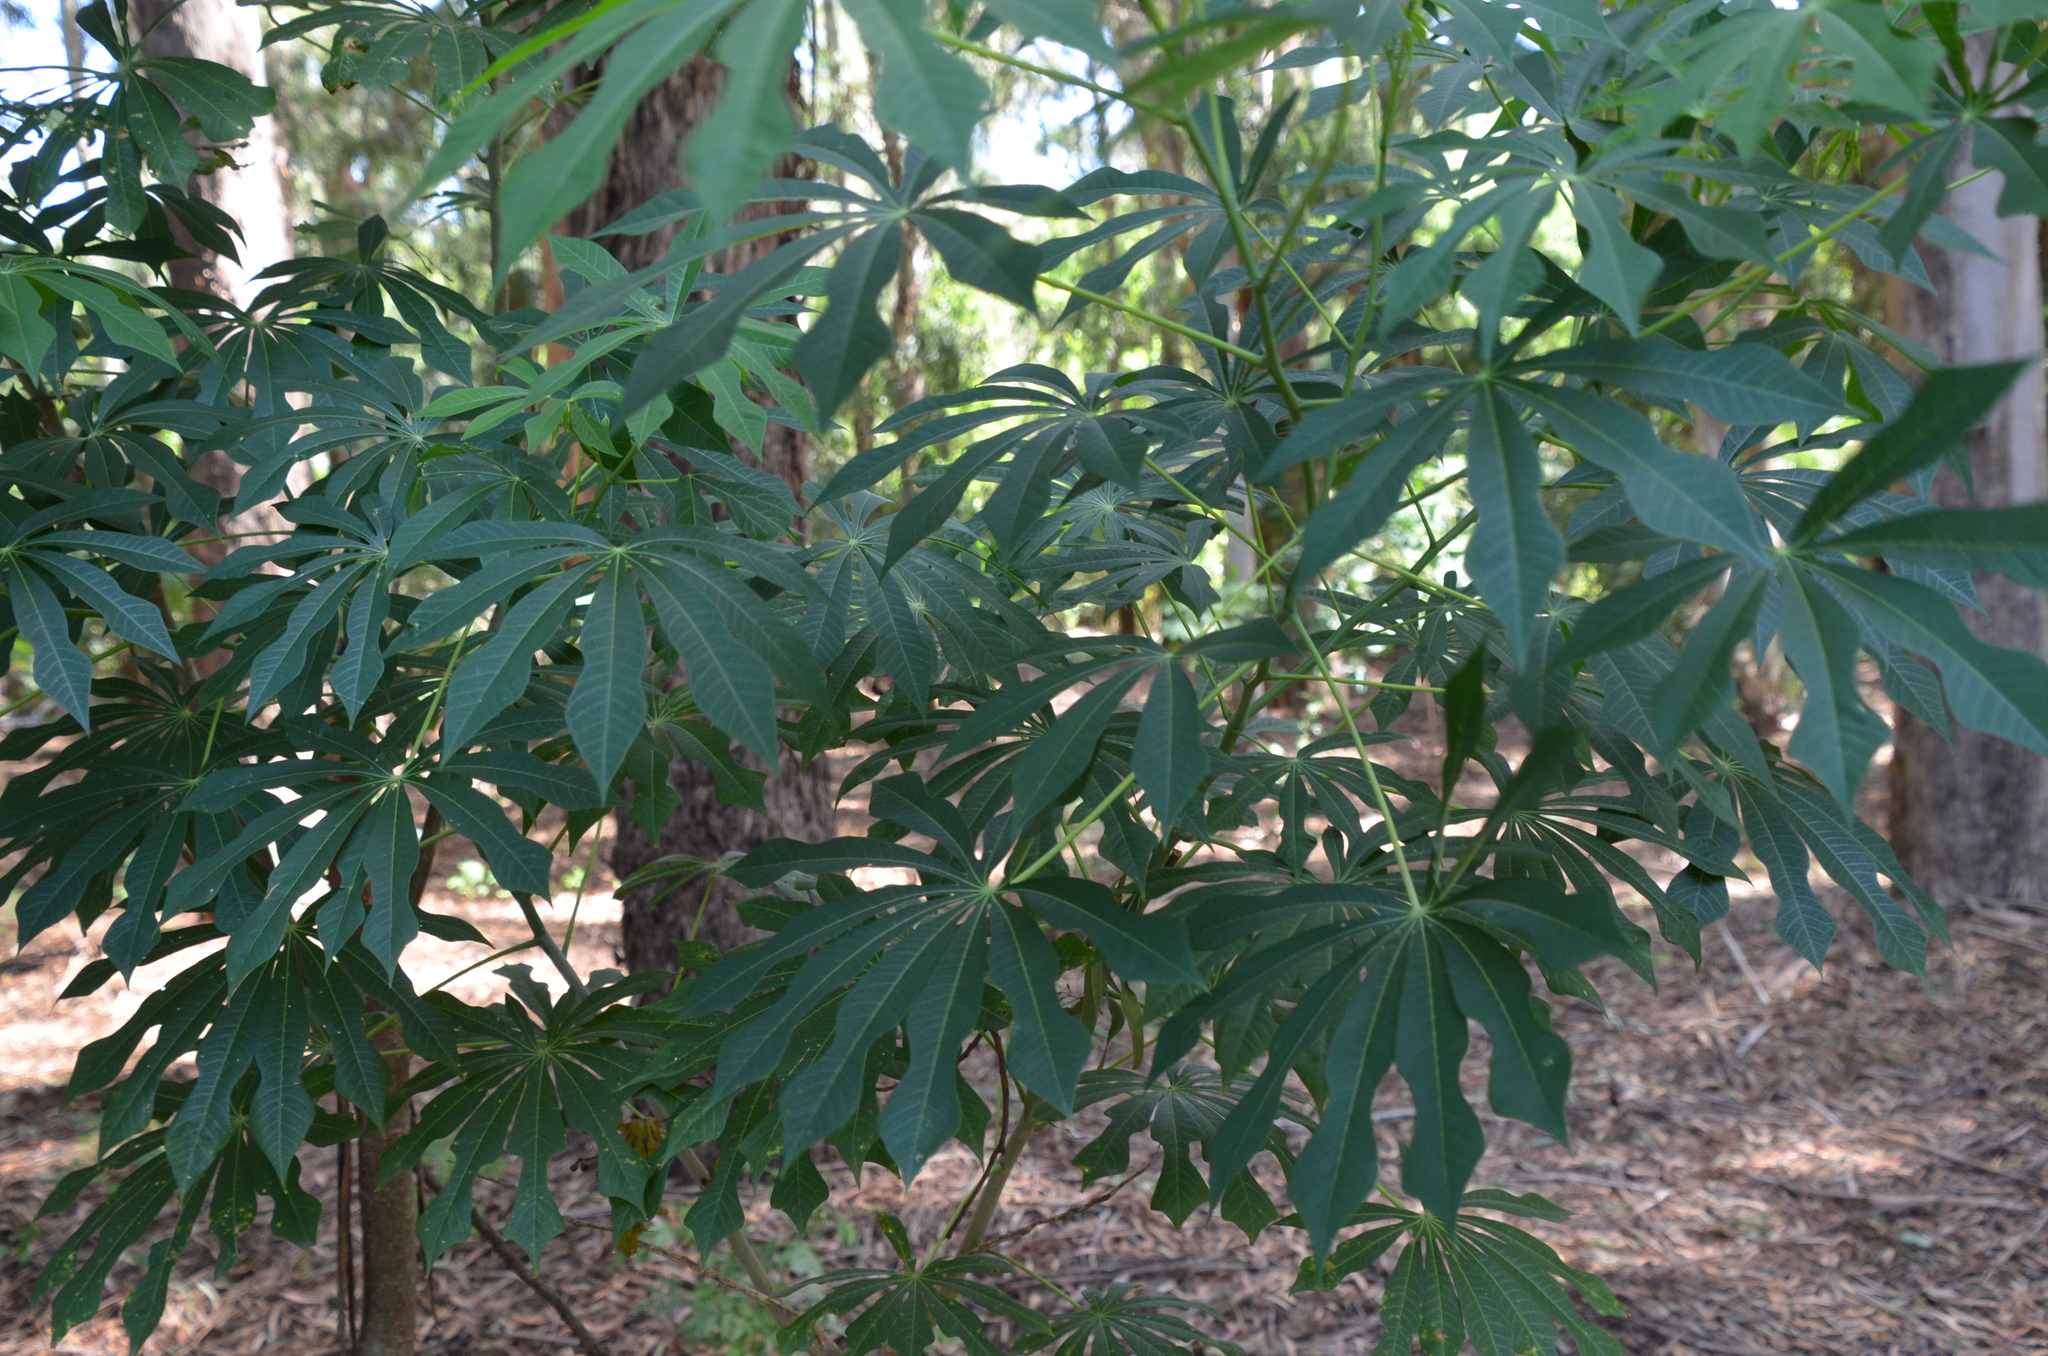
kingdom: Plantae
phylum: Tracheophyta
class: Magnoliopsida
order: Malpighiales
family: Euphorbiaceae
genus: Manihot
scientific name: Manihot grahamii
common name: Graham's manihot
